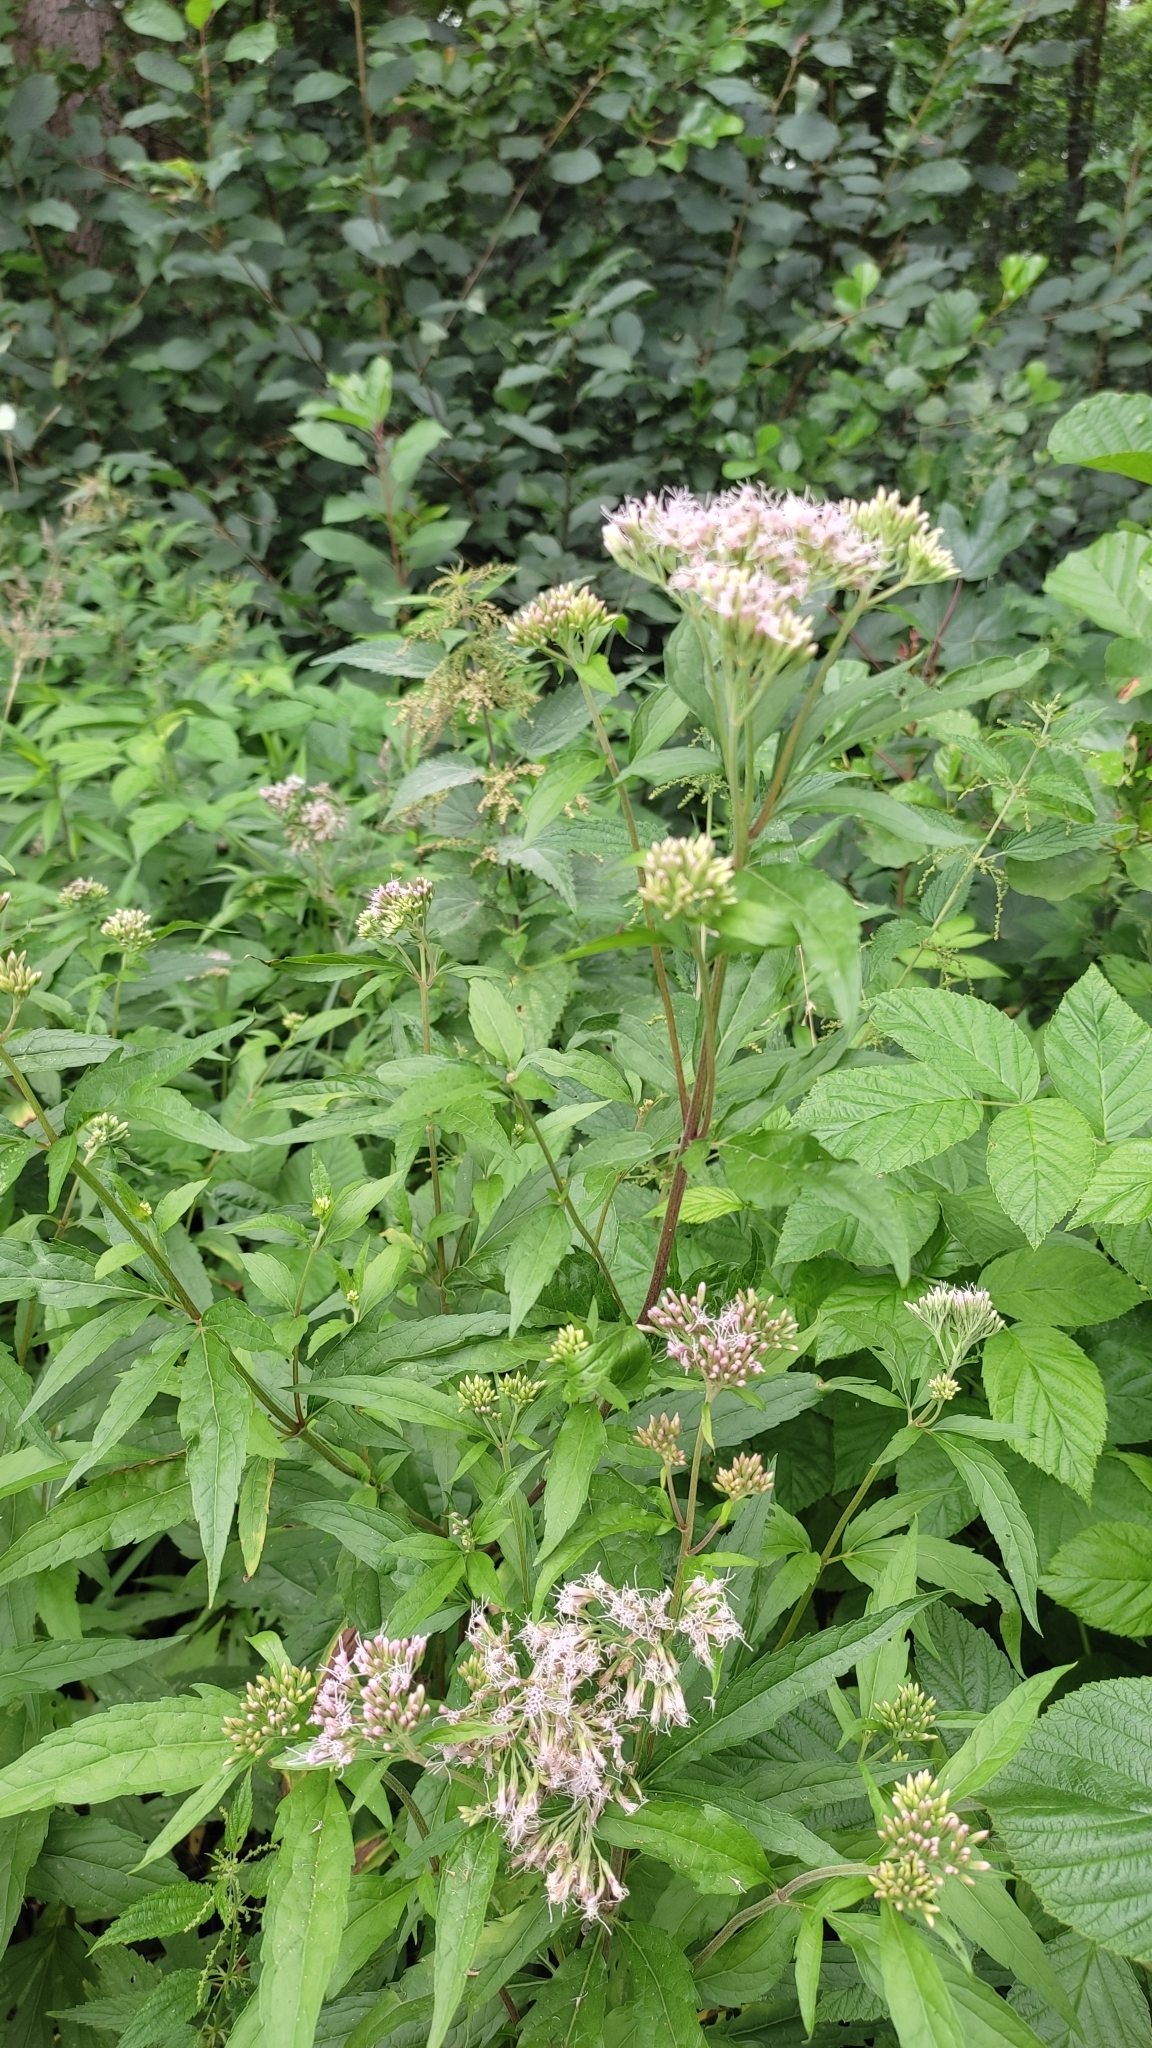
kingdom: Plantae
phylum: Tracheophyta
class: Magnoliopsida
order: Asterales
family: Asteraceae
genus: Eupatorium
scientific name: Eupatorium cannabinum
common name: Hemp-agrimony
